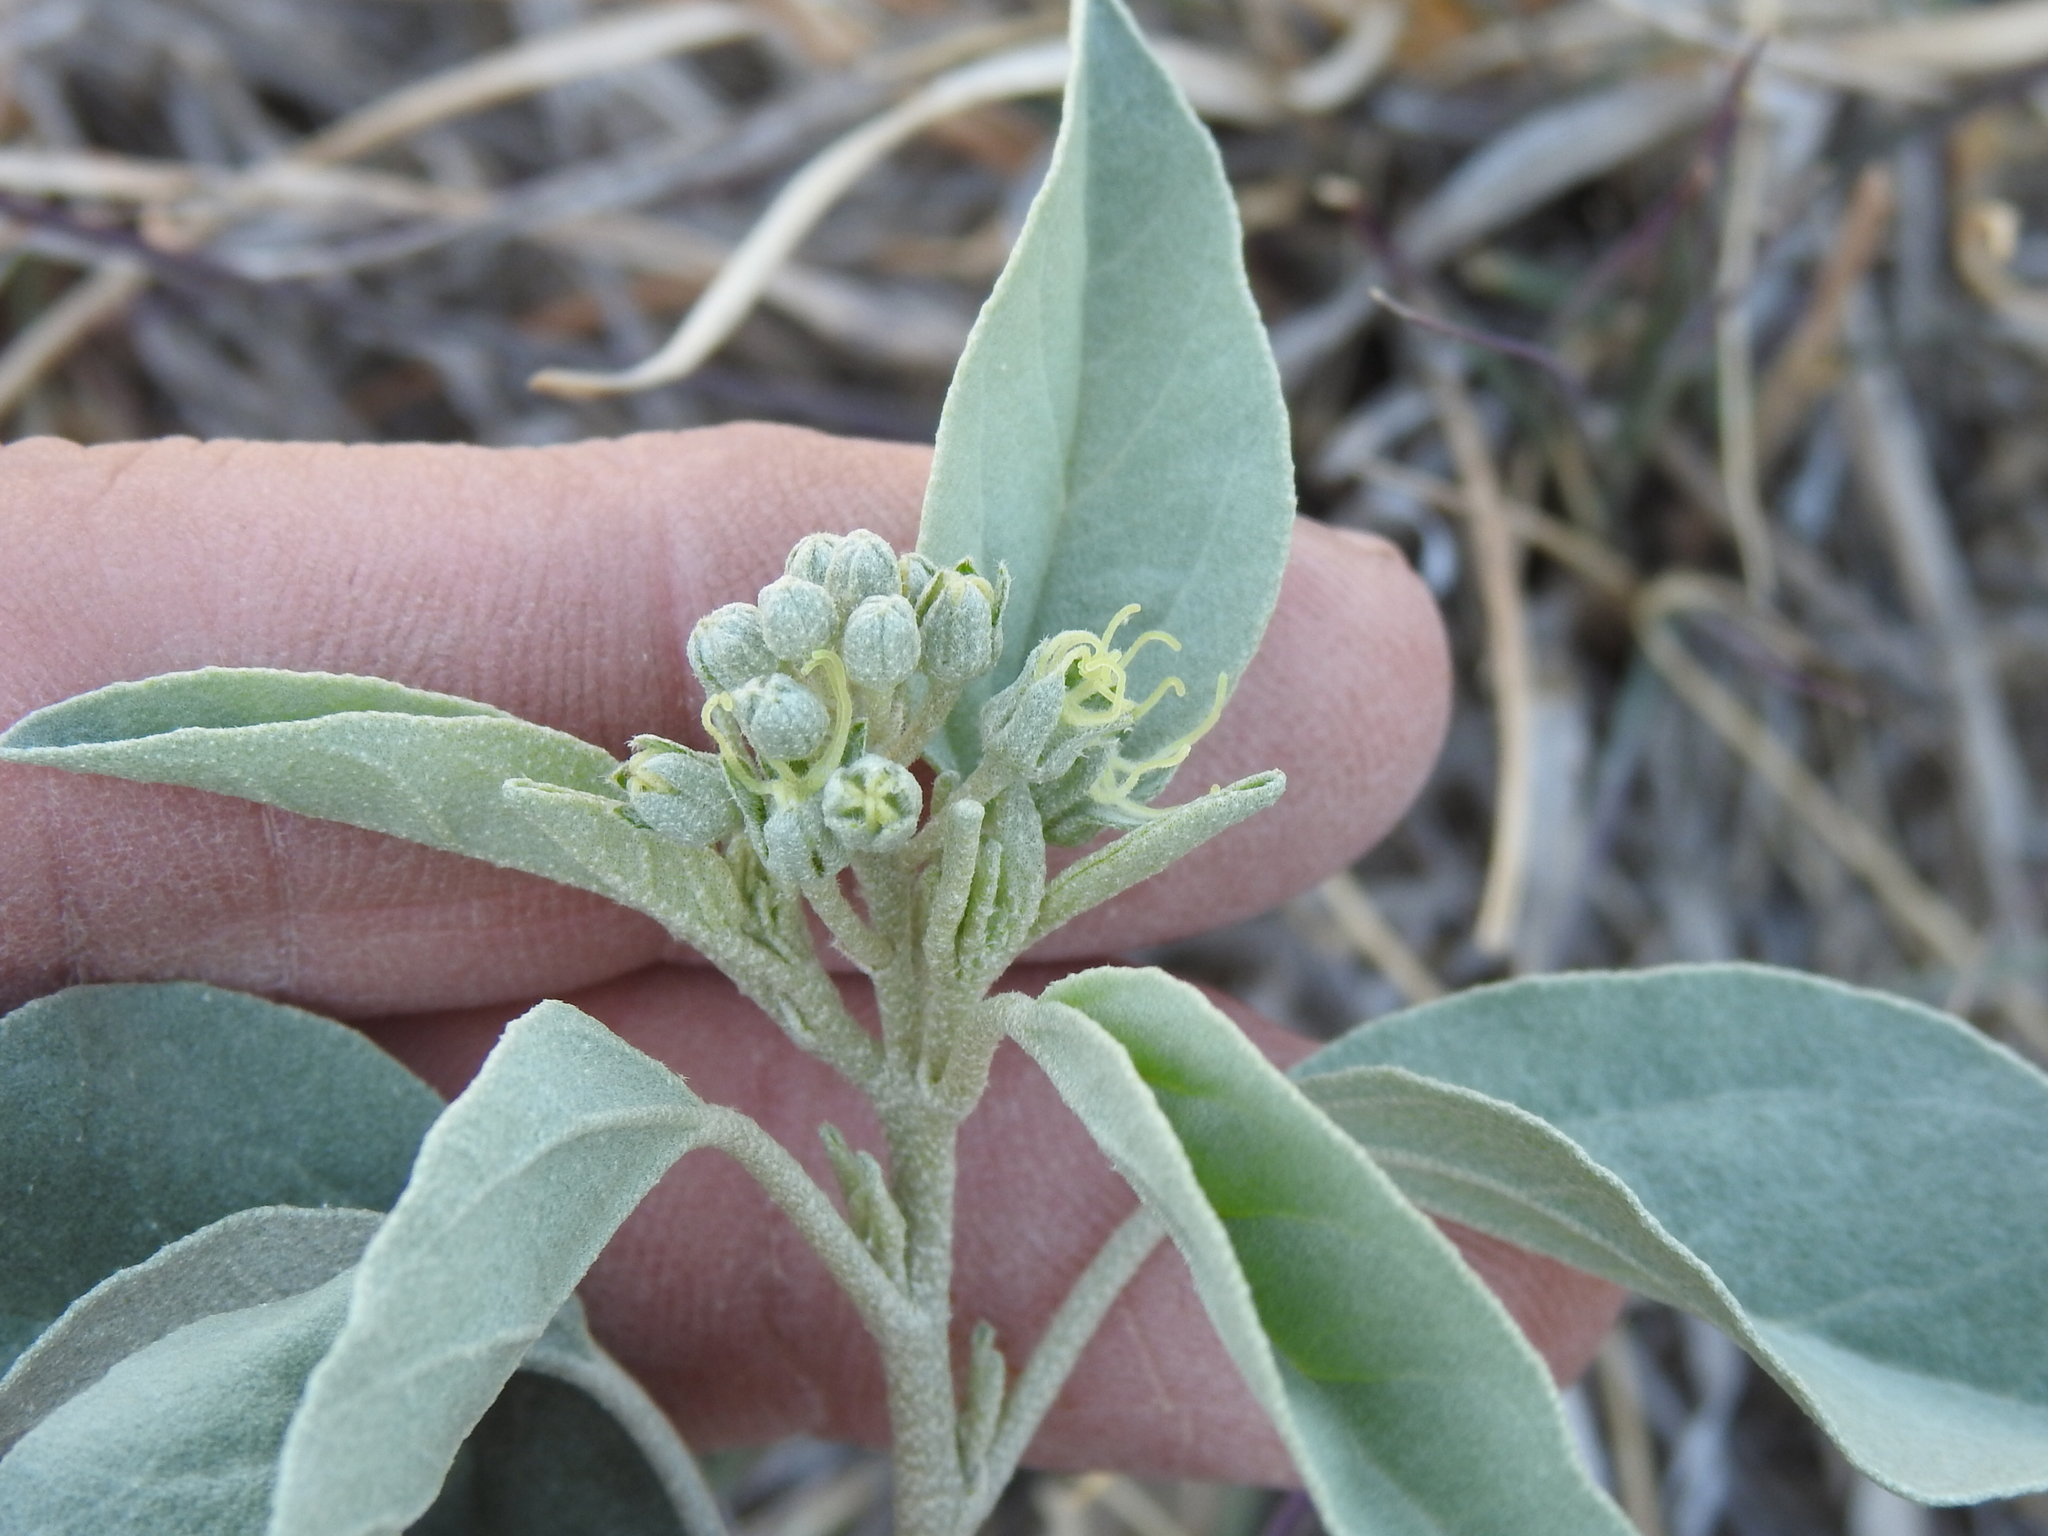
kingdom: Plantae
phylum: Tracheophyta
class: Magnoliopsida
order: Malpighiales
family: Euphorbiaceae
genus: Croton
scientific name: Croton pottsii
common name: Leatherweed
